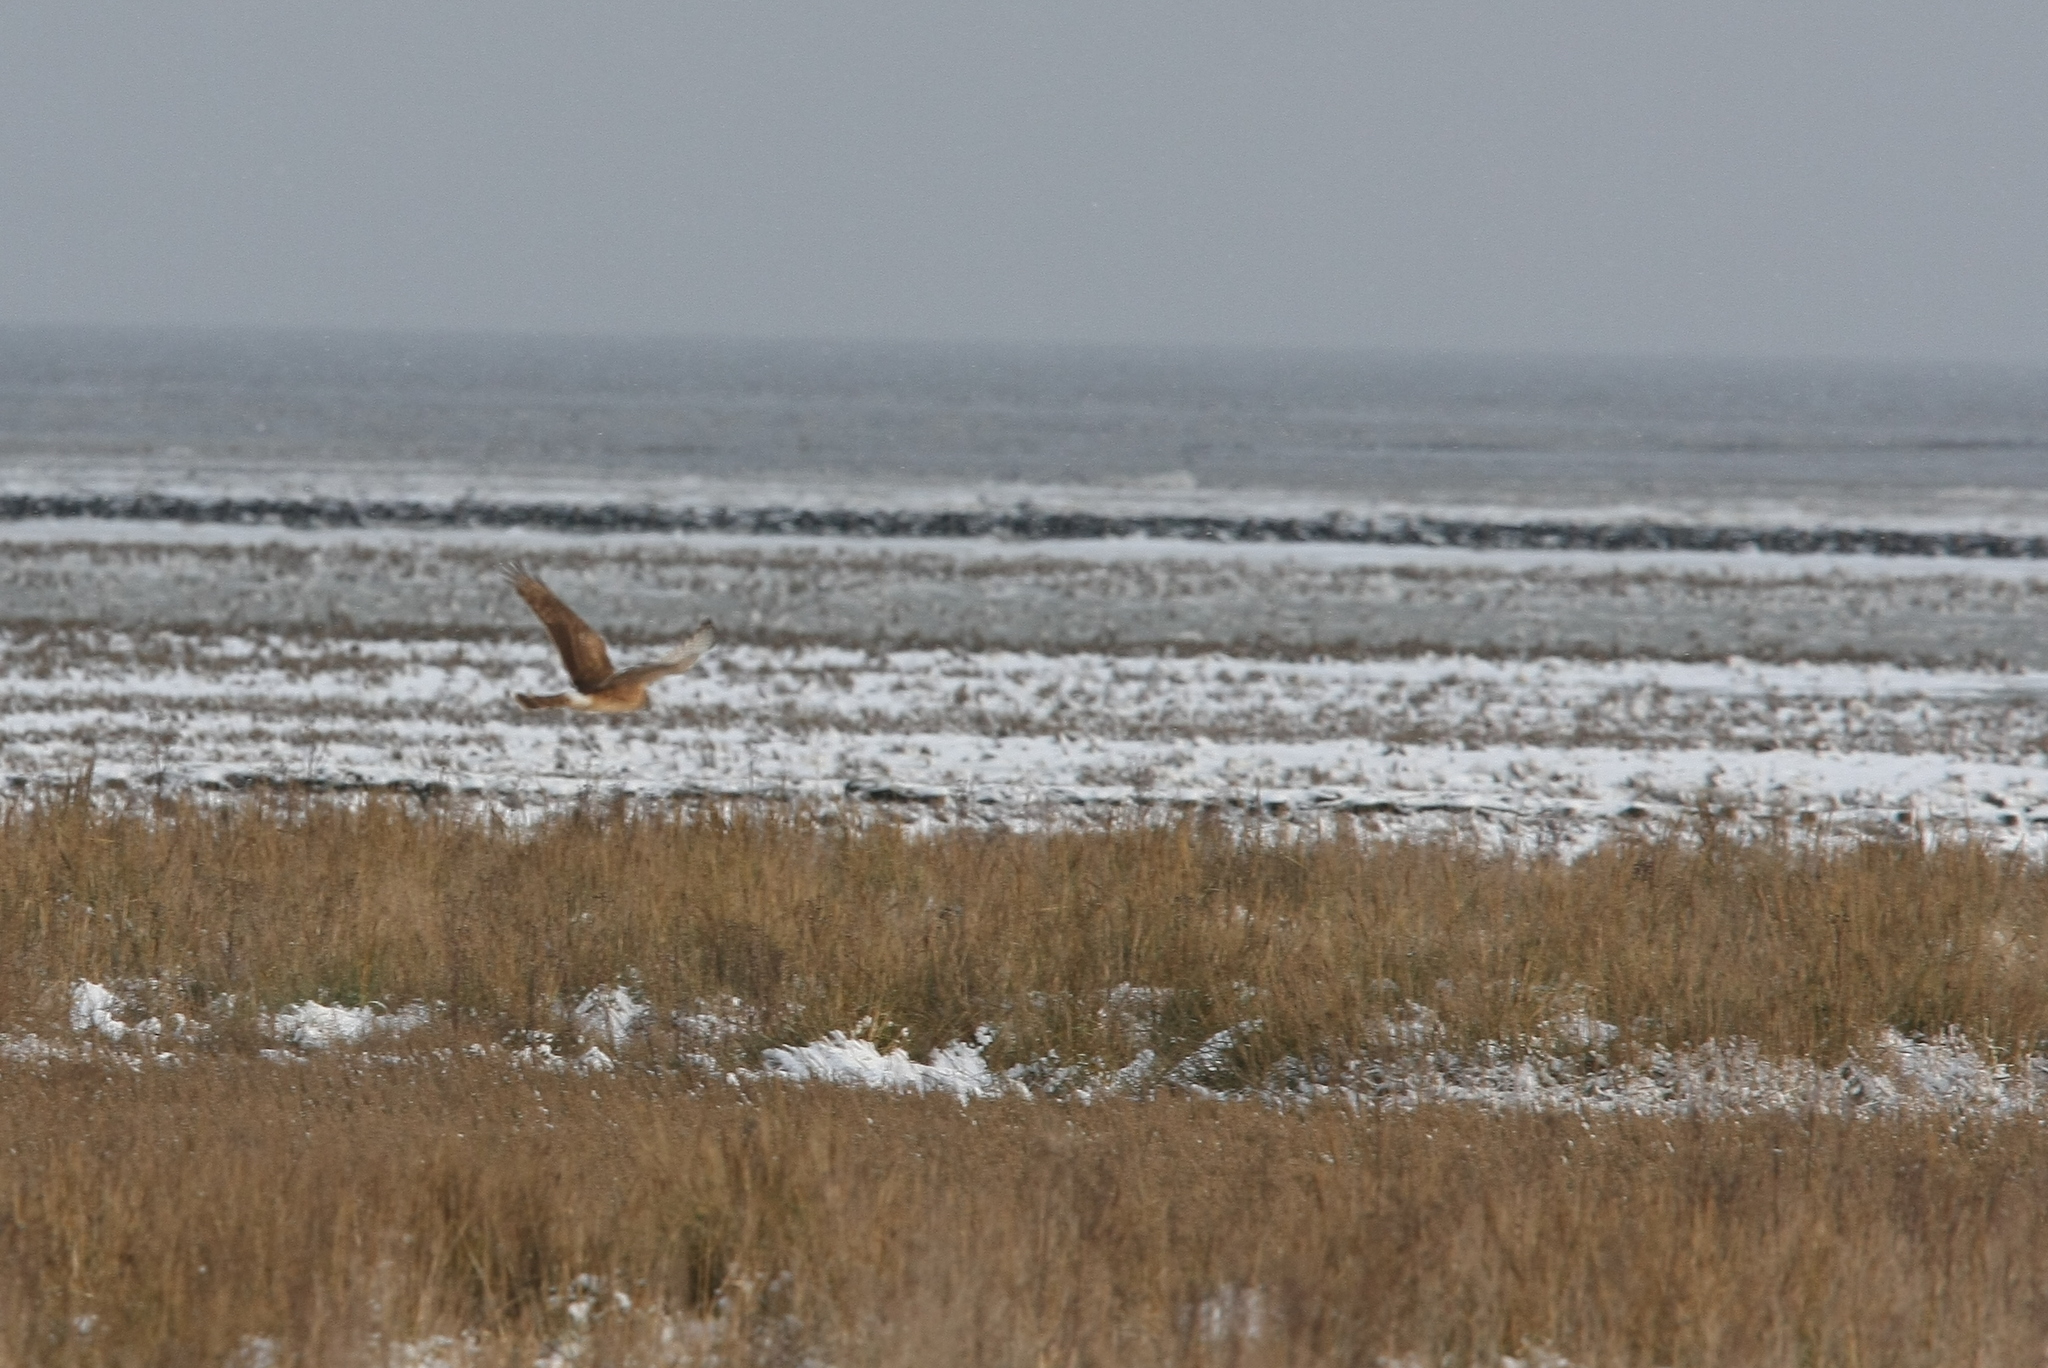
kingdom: Animalia
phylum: Chordata
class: Aves
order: Accipitriformes
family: Accipitridae
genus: Circus
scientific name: Circus cyaneus
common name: Hen harrier
